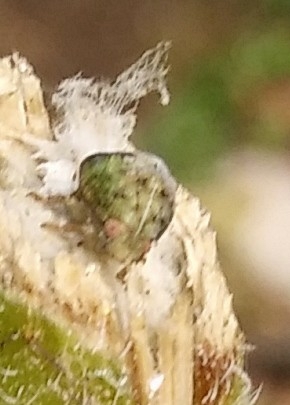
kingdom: Animalia
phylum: Arthropoda
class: Insecta
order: Hemiptera
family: Acanaloniidae
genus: Acanalonia
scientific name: Acanalonia conica
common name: Green cone-headed planthopper
